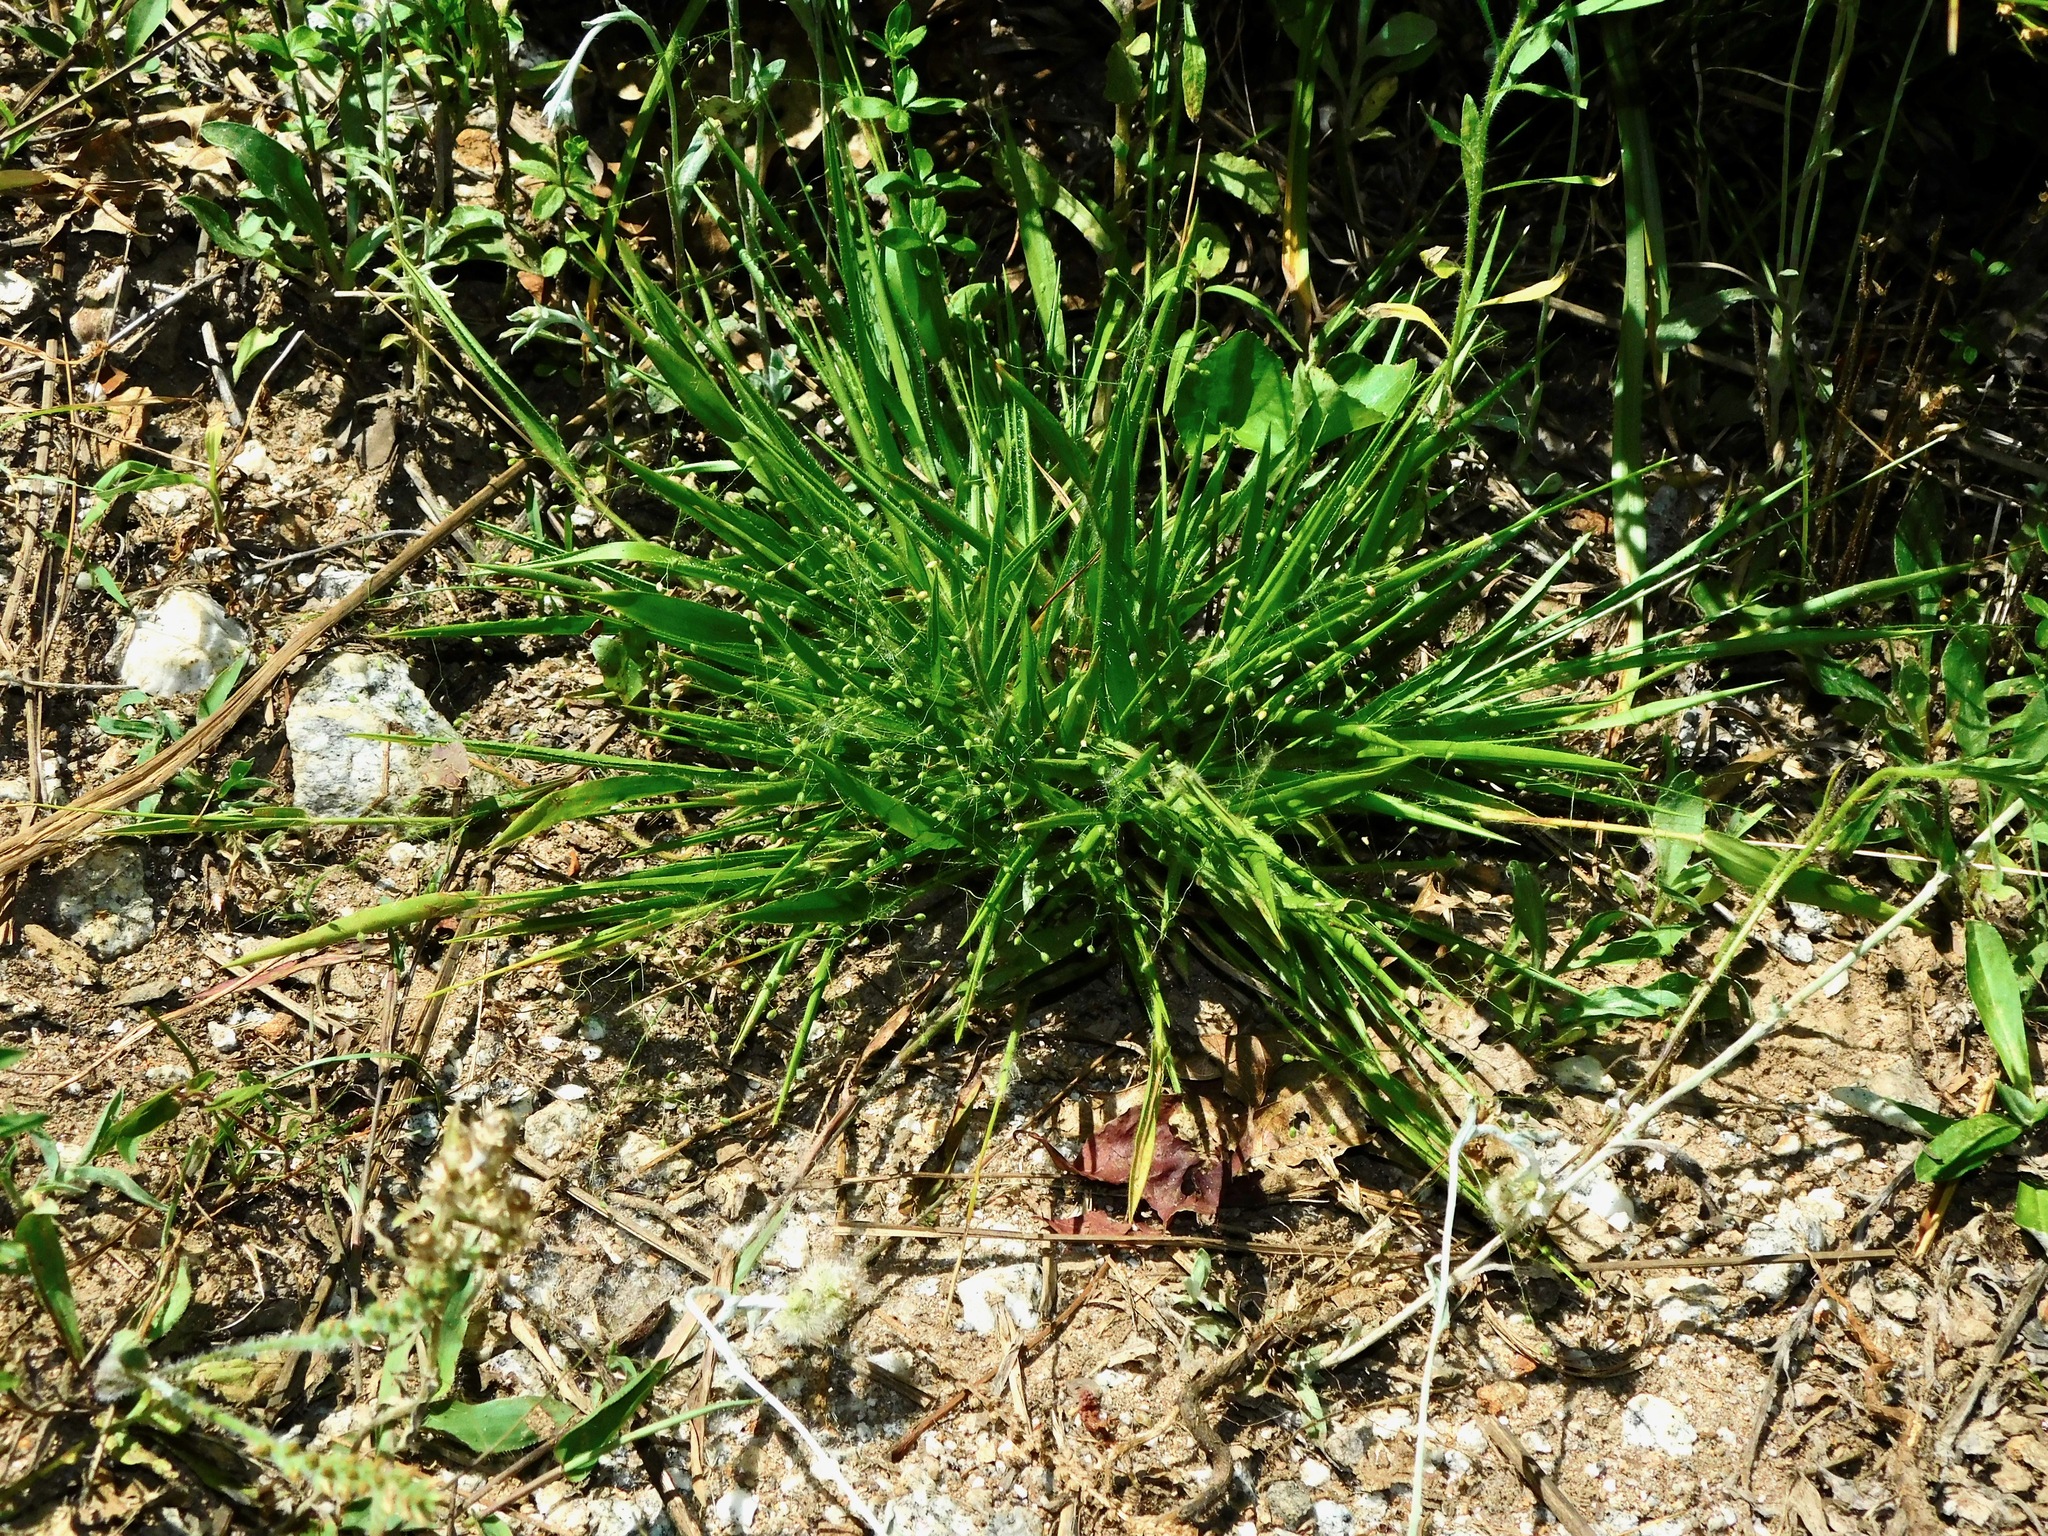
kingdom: Plantae
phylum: Tracheophyta
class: Liliopsida
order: Poales
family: Poaceae
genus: Dichanthelium
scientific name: Dichanthelium laxiflorum
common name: Soft-tuft panic grass
